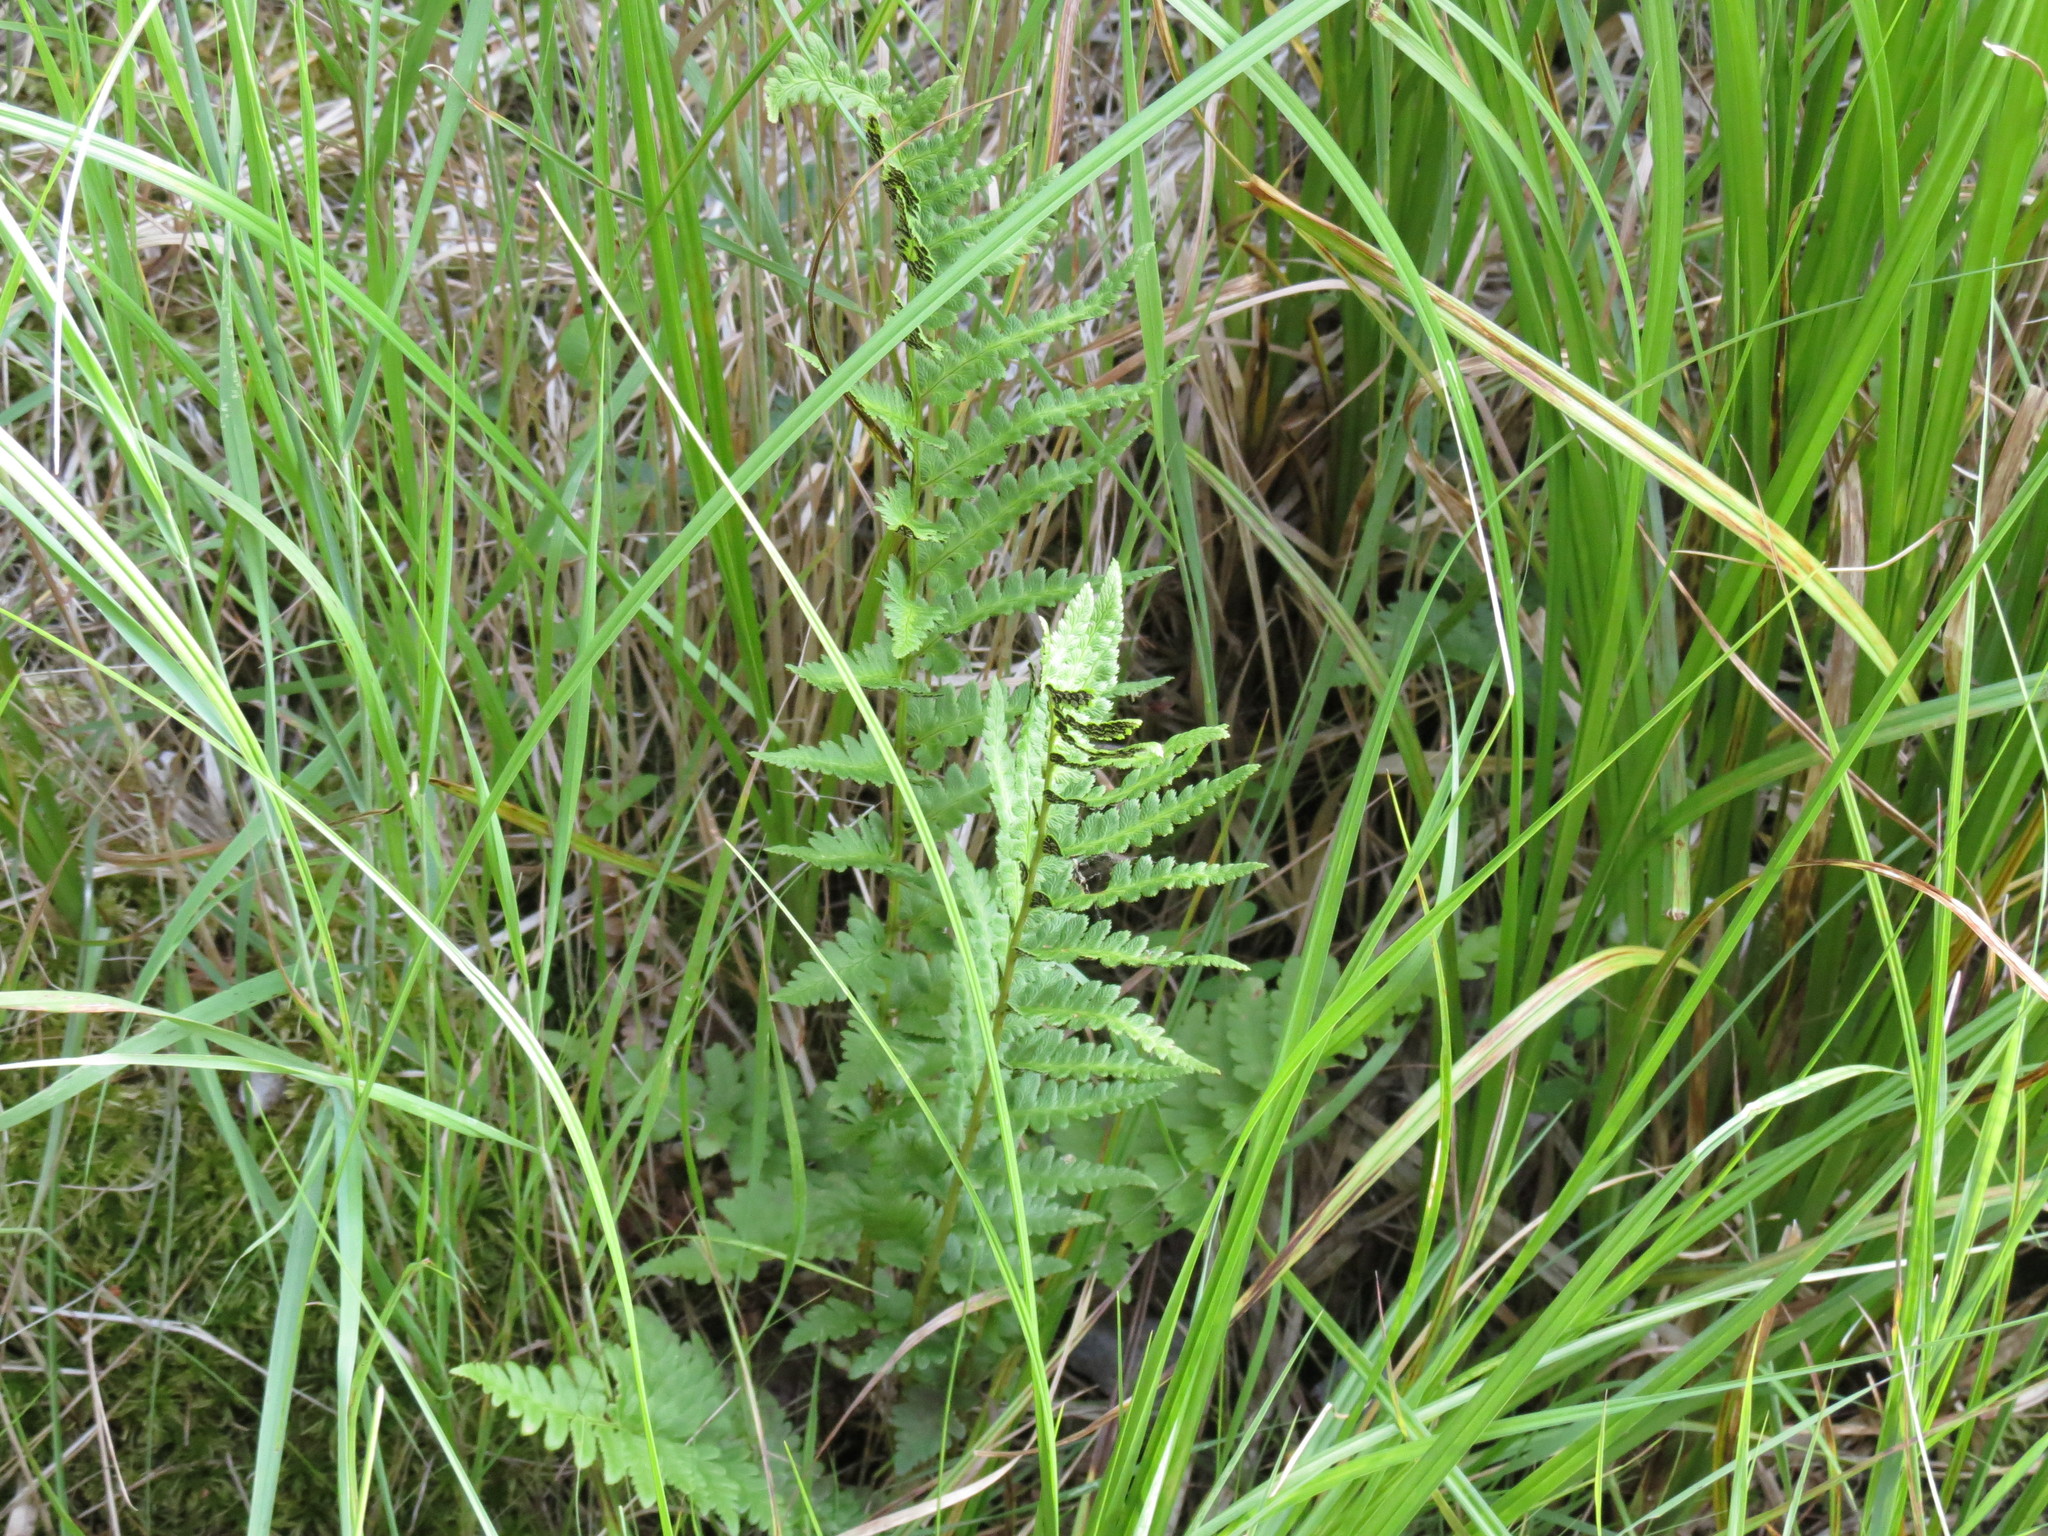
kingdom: Plantae
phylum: Tracheophyta
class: Polypodiopsida
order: Polypodiales
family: Dryopteridaceae
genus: Dryopteris
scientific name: Dryopteris cristata
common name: Crested wood fern
